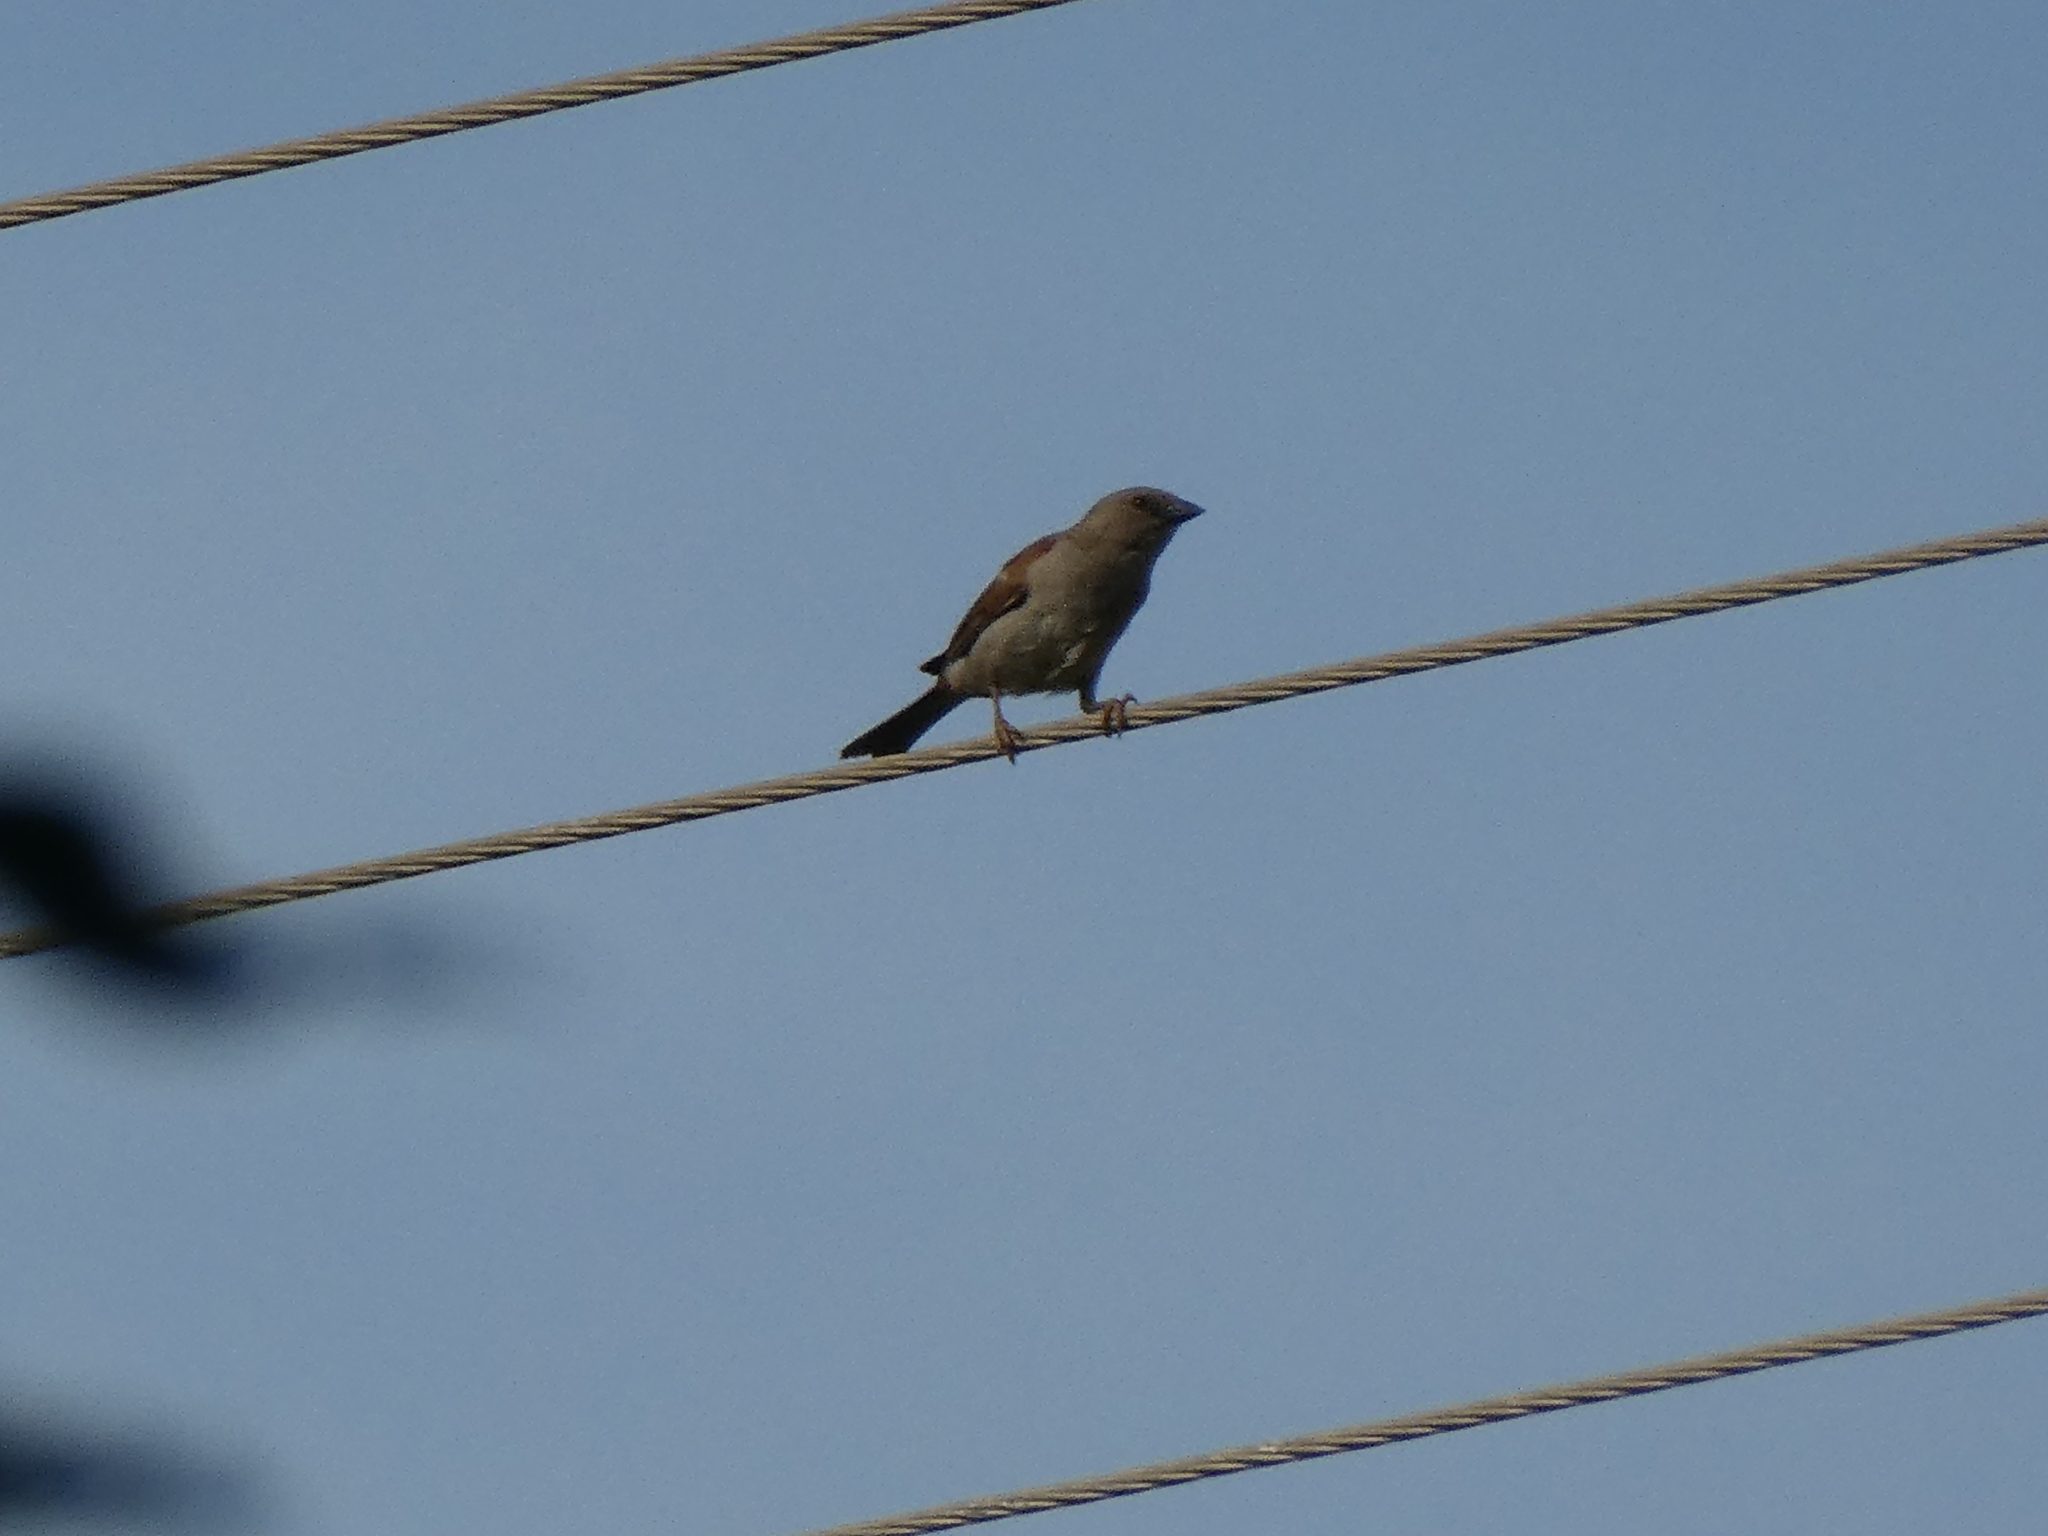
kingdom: Animalia
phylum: Chordata
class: Aves
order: Passeriformes
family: Passeridae
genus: Passer
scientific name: Passer griseus
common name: Northern grey-headed sparrow
